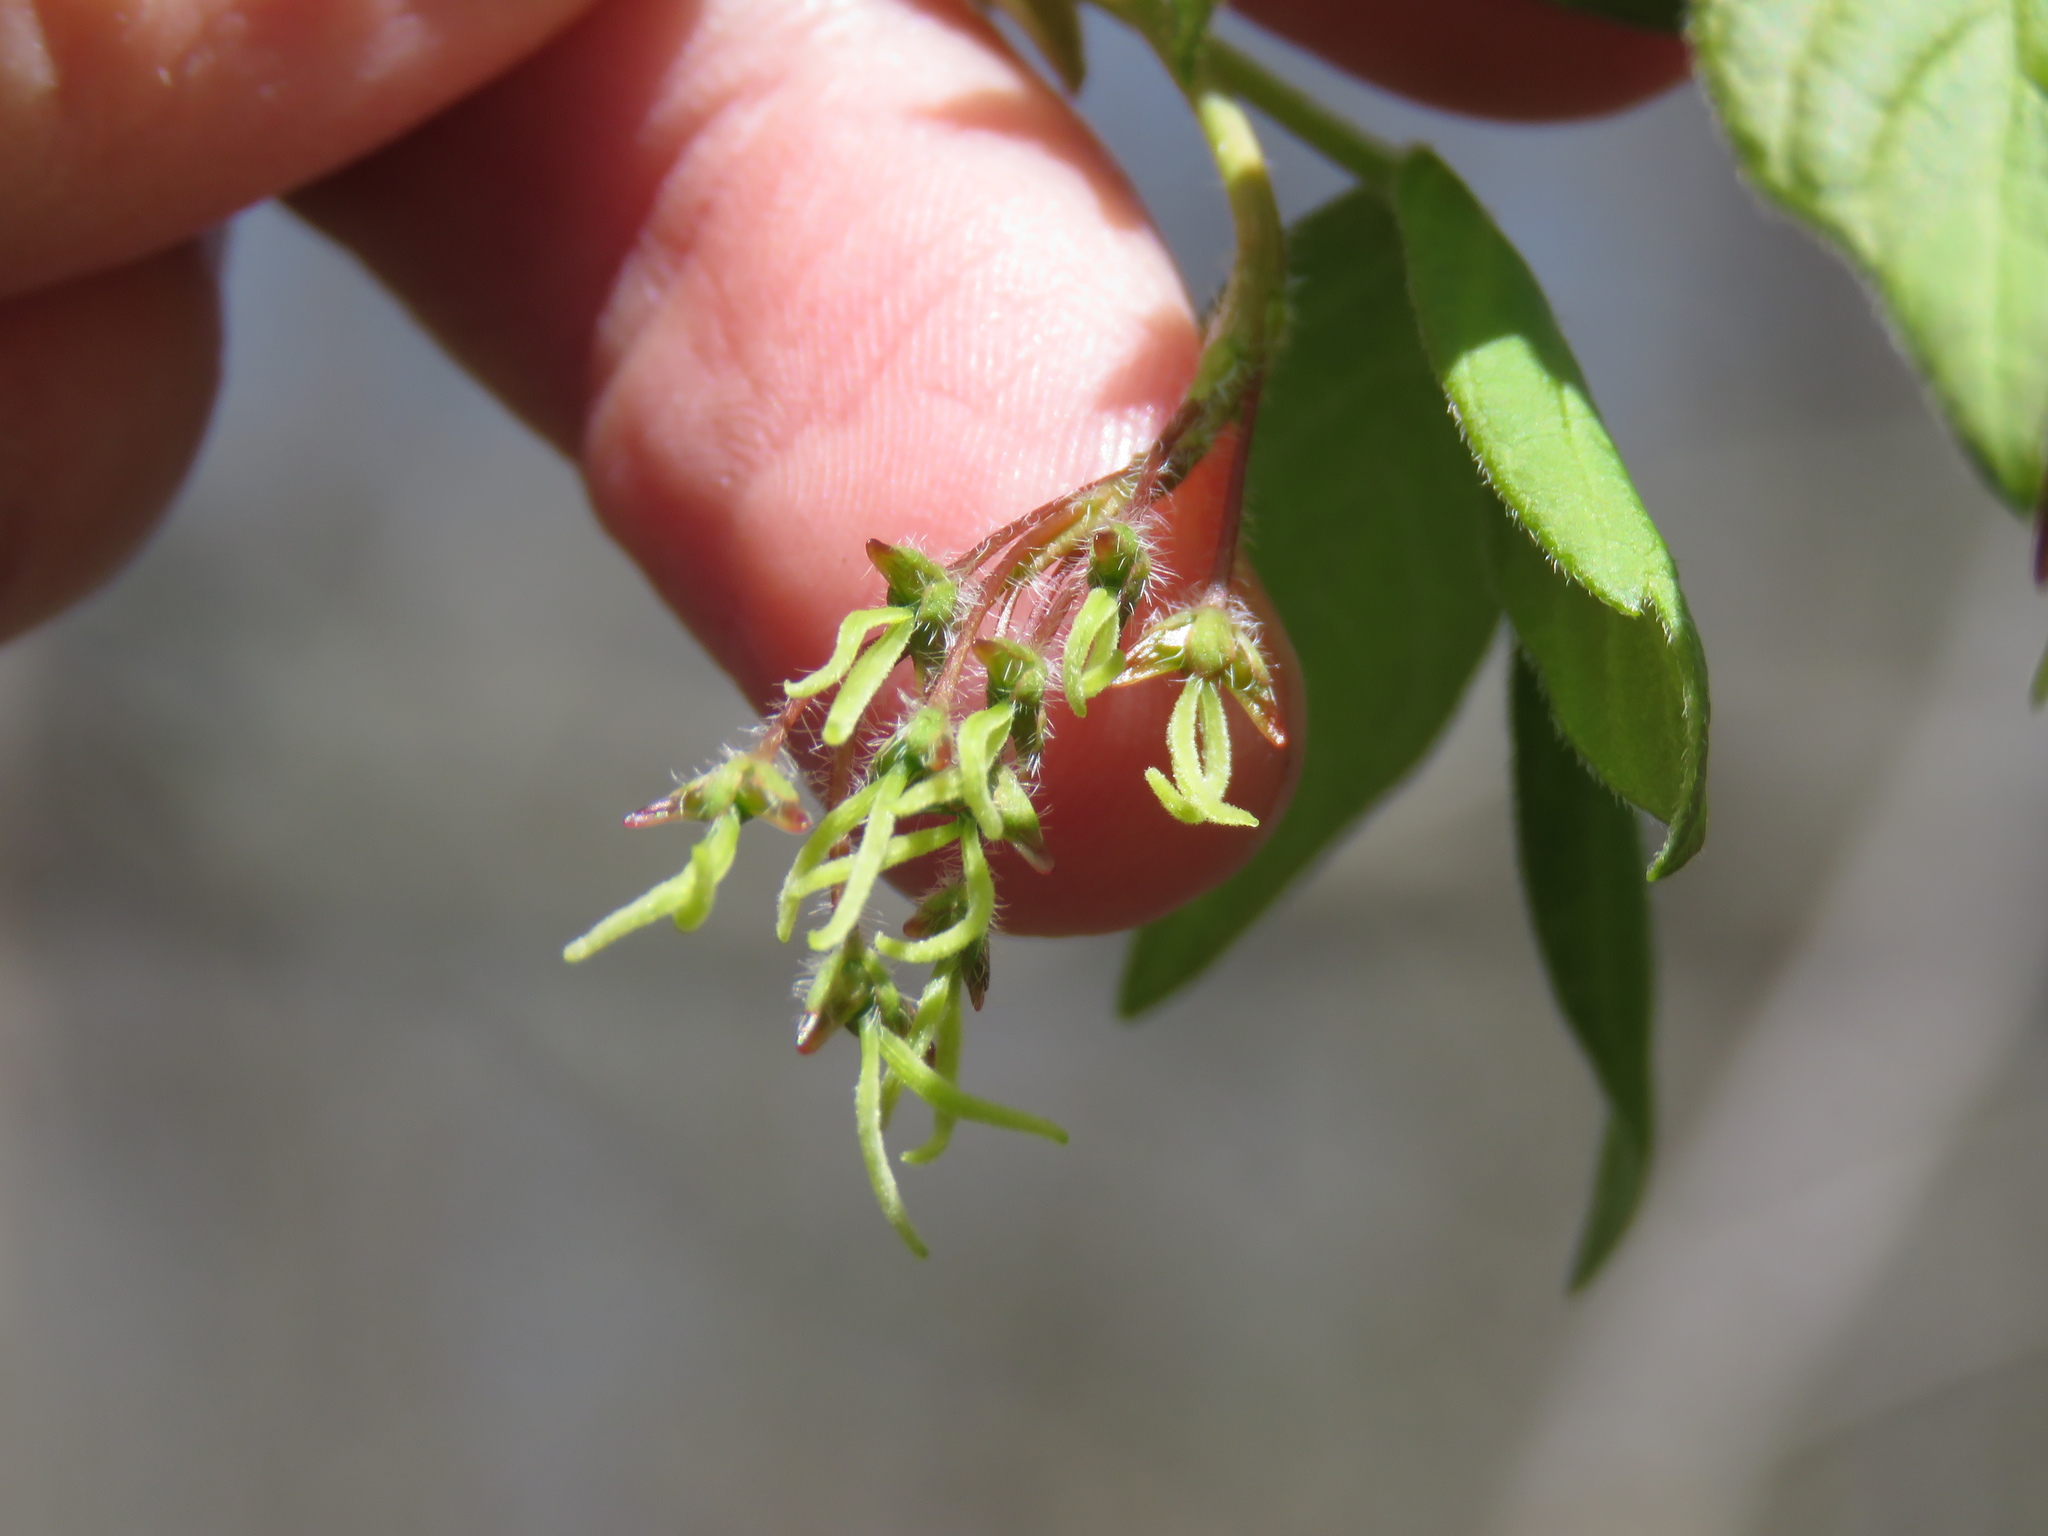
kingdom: Plantae
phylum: Tracheophyta
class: Magnoliopsida
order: Sapindales
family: Sapindaceae
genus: Acer
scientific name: Acer negundo
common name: Ashleaf maple
